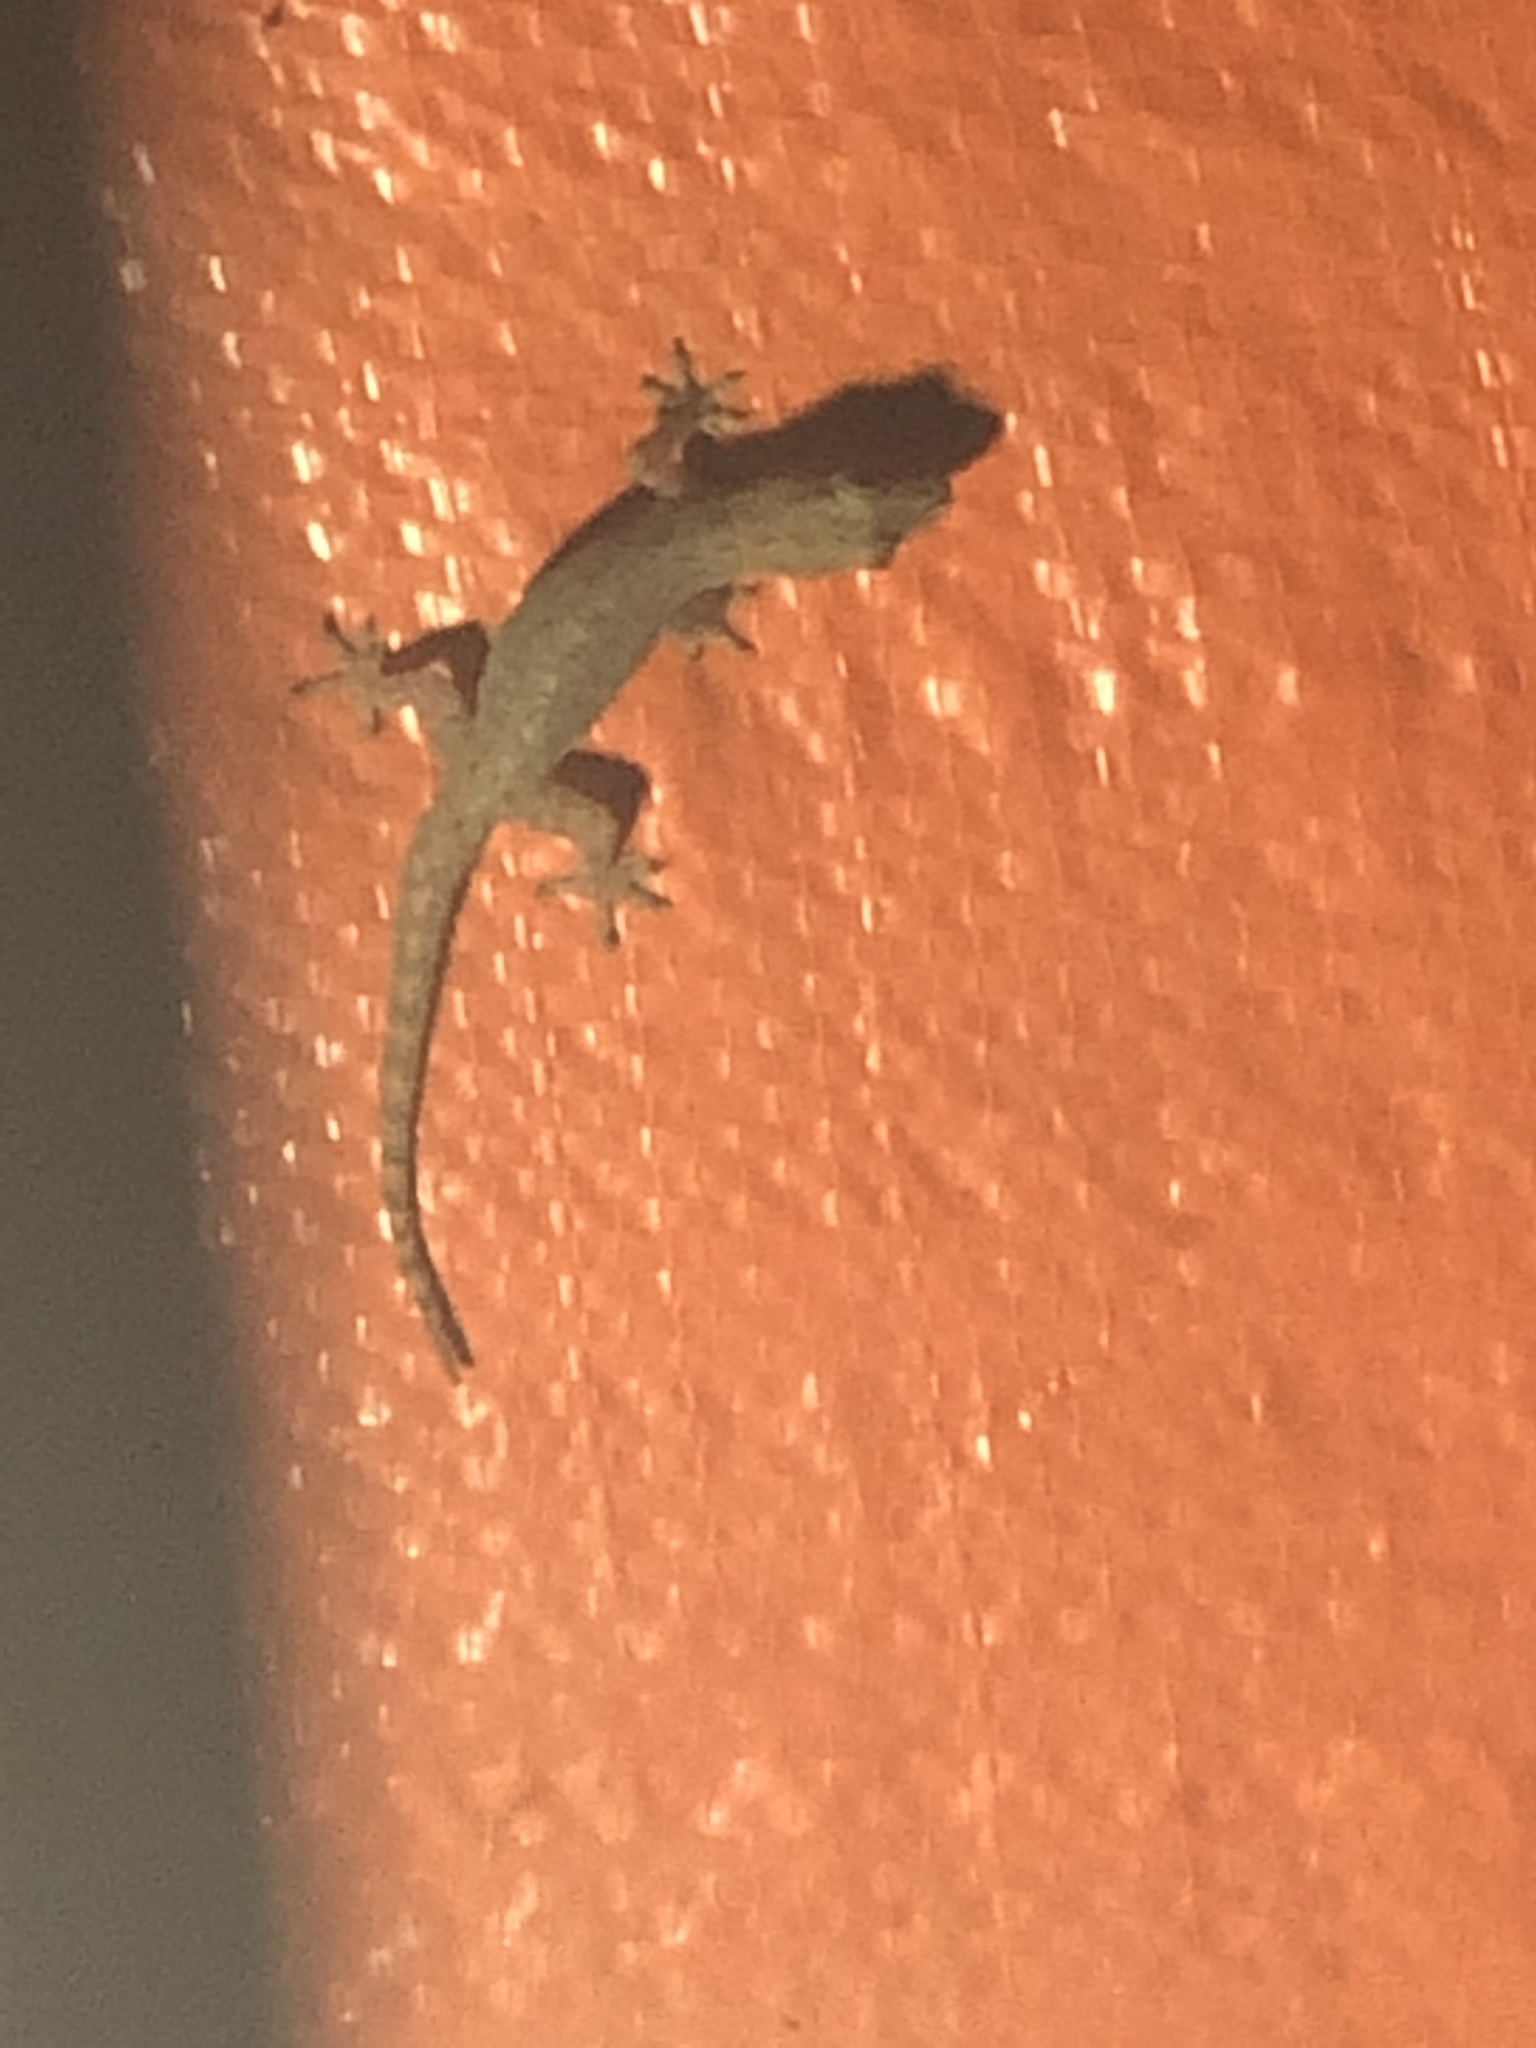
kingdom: Animalia
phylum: Chordata
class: Squamata
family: Gekkonidae
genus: Hemidactylus
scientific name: Hemidactylus frenatus
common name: Common house gecko
